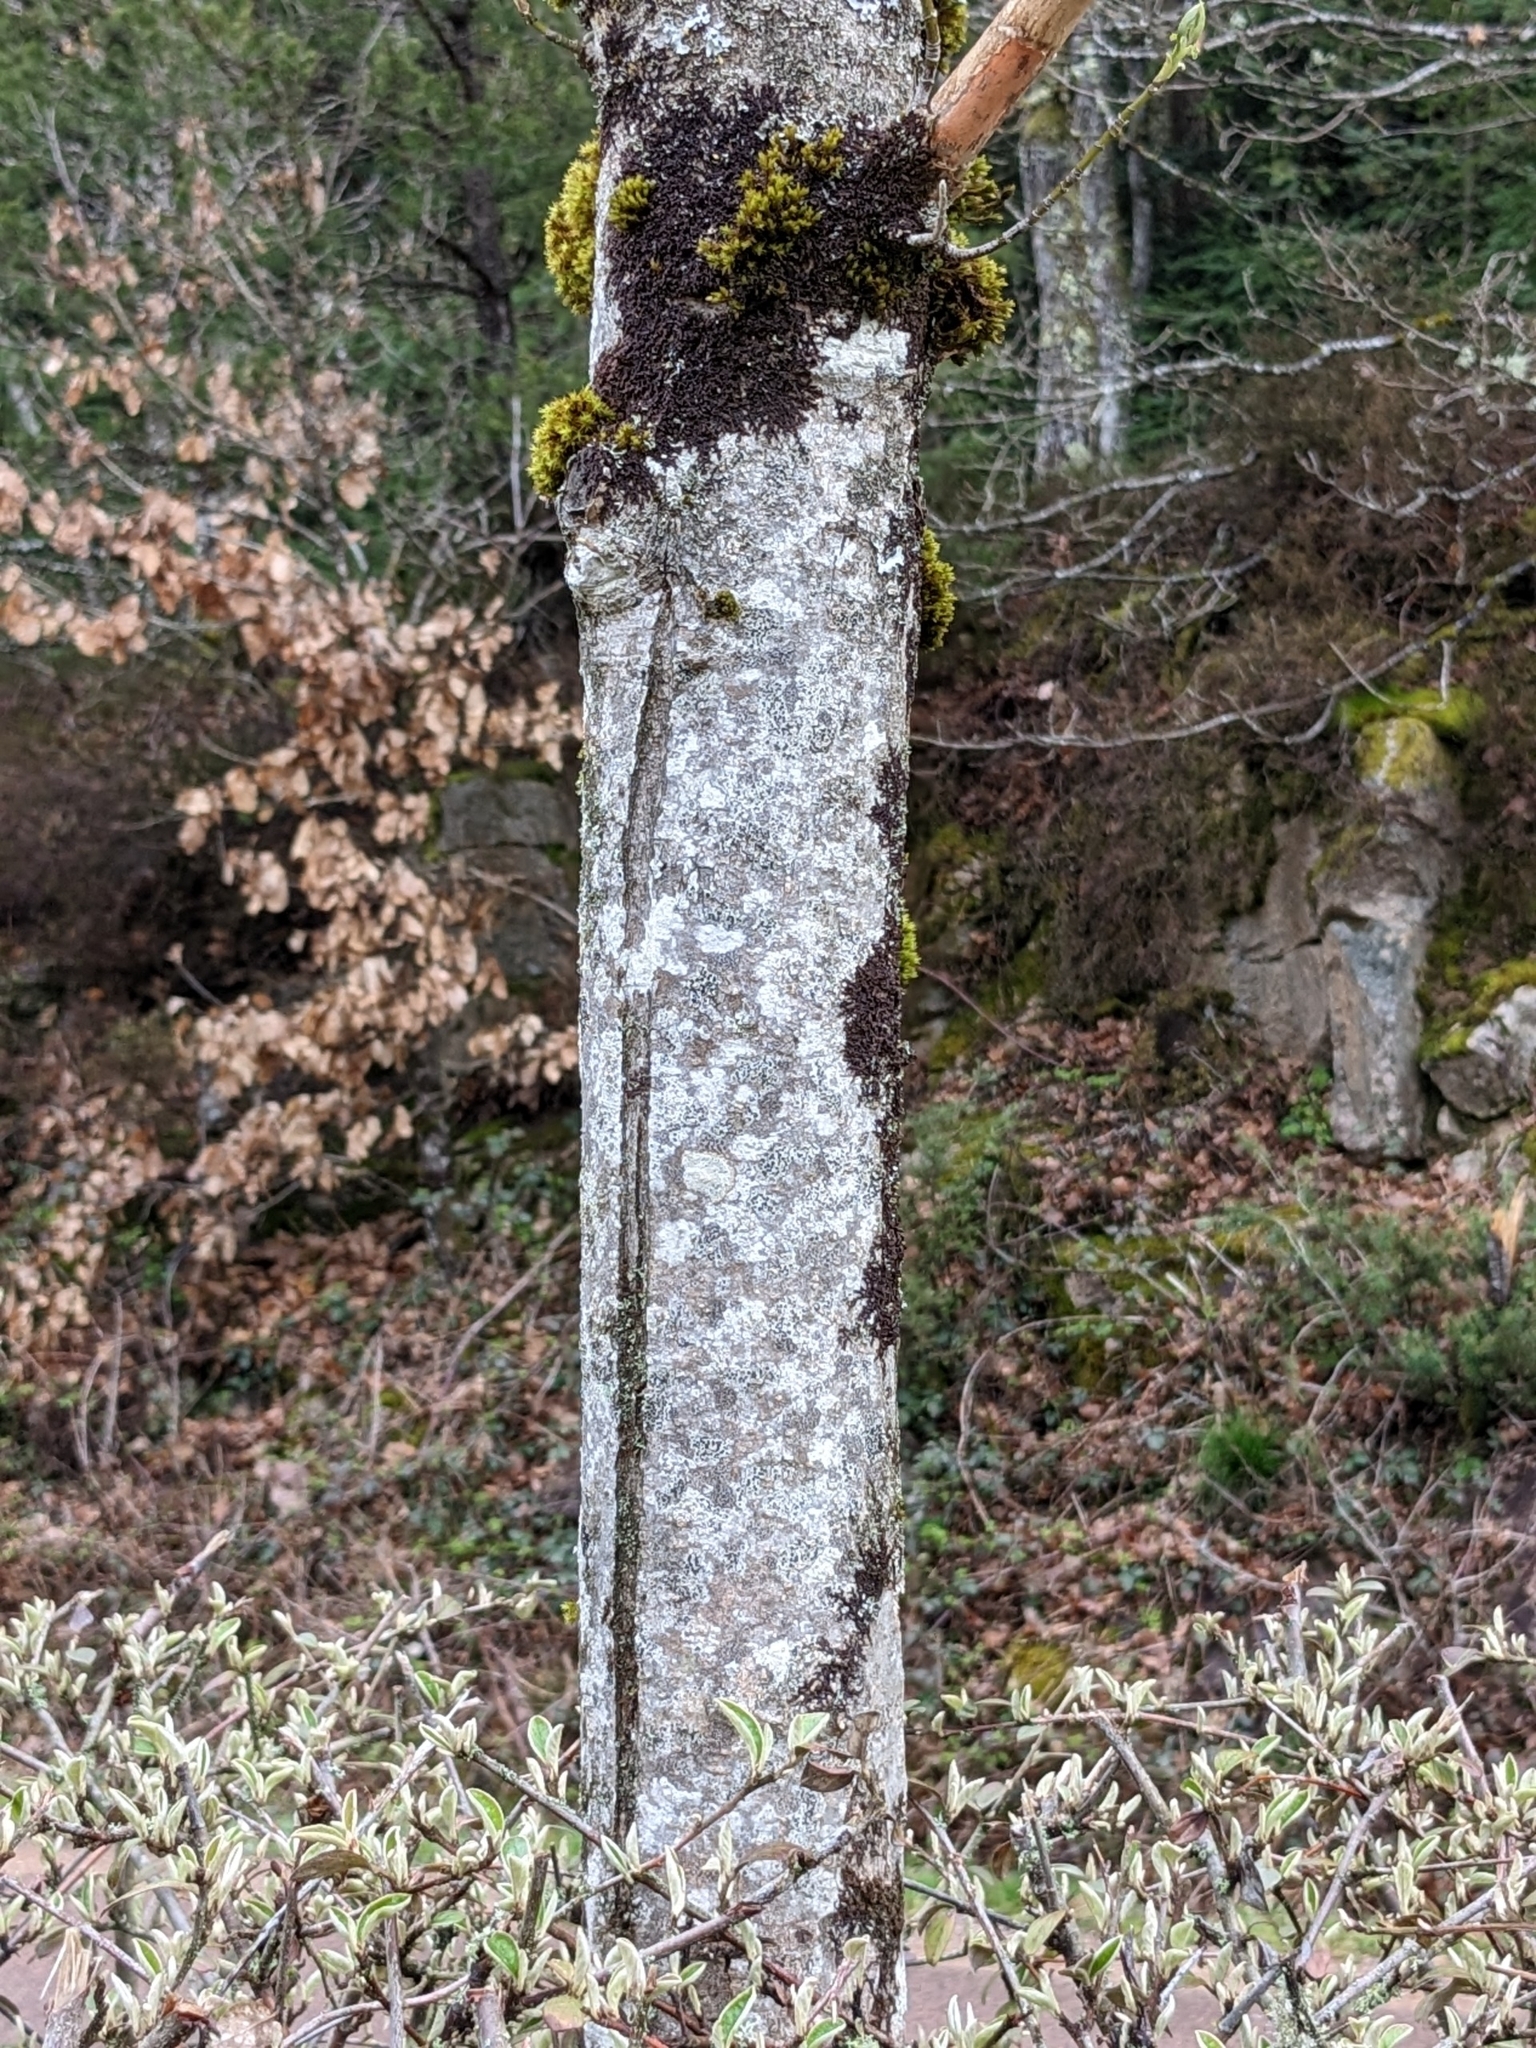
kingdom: Plantae
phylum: Tracheophyta
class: Magnoliopsida
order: Sapindales
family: Sapindaceae
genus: Acer
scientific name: Acer negundo
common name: Ashleaf maple
